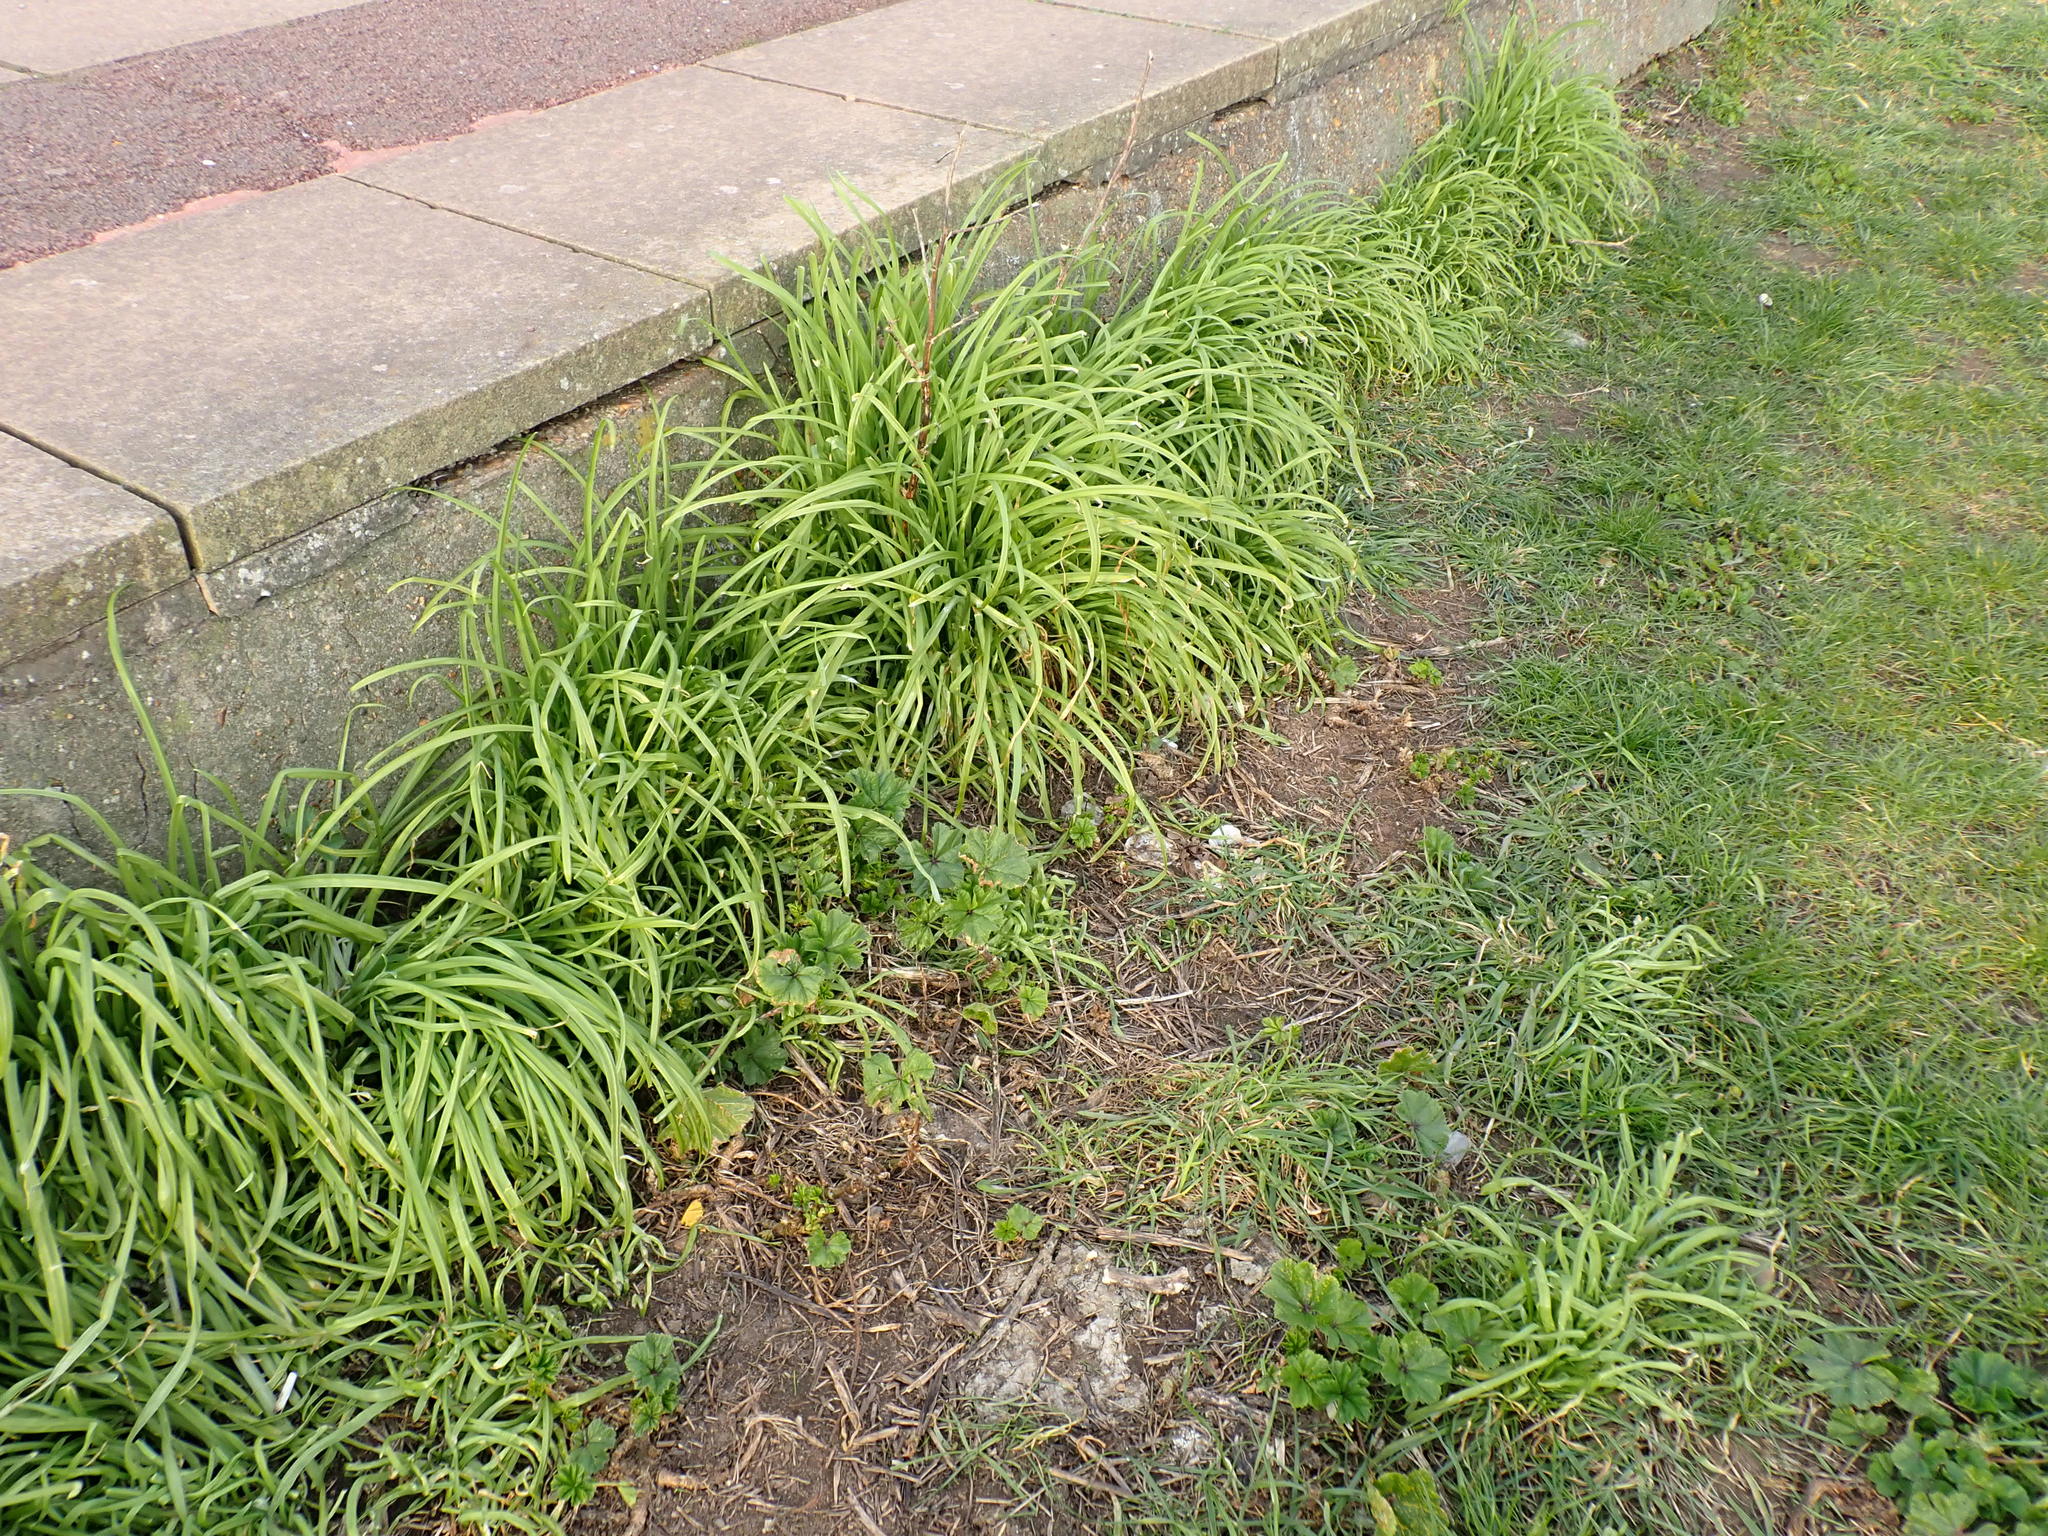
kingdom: Plantae
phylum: Tracheophyta
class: Liliopsida
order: Asparagales
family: Amaryllidaceae
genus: Allium
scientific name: Allium triquetrum
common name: Three-cornered garlic
